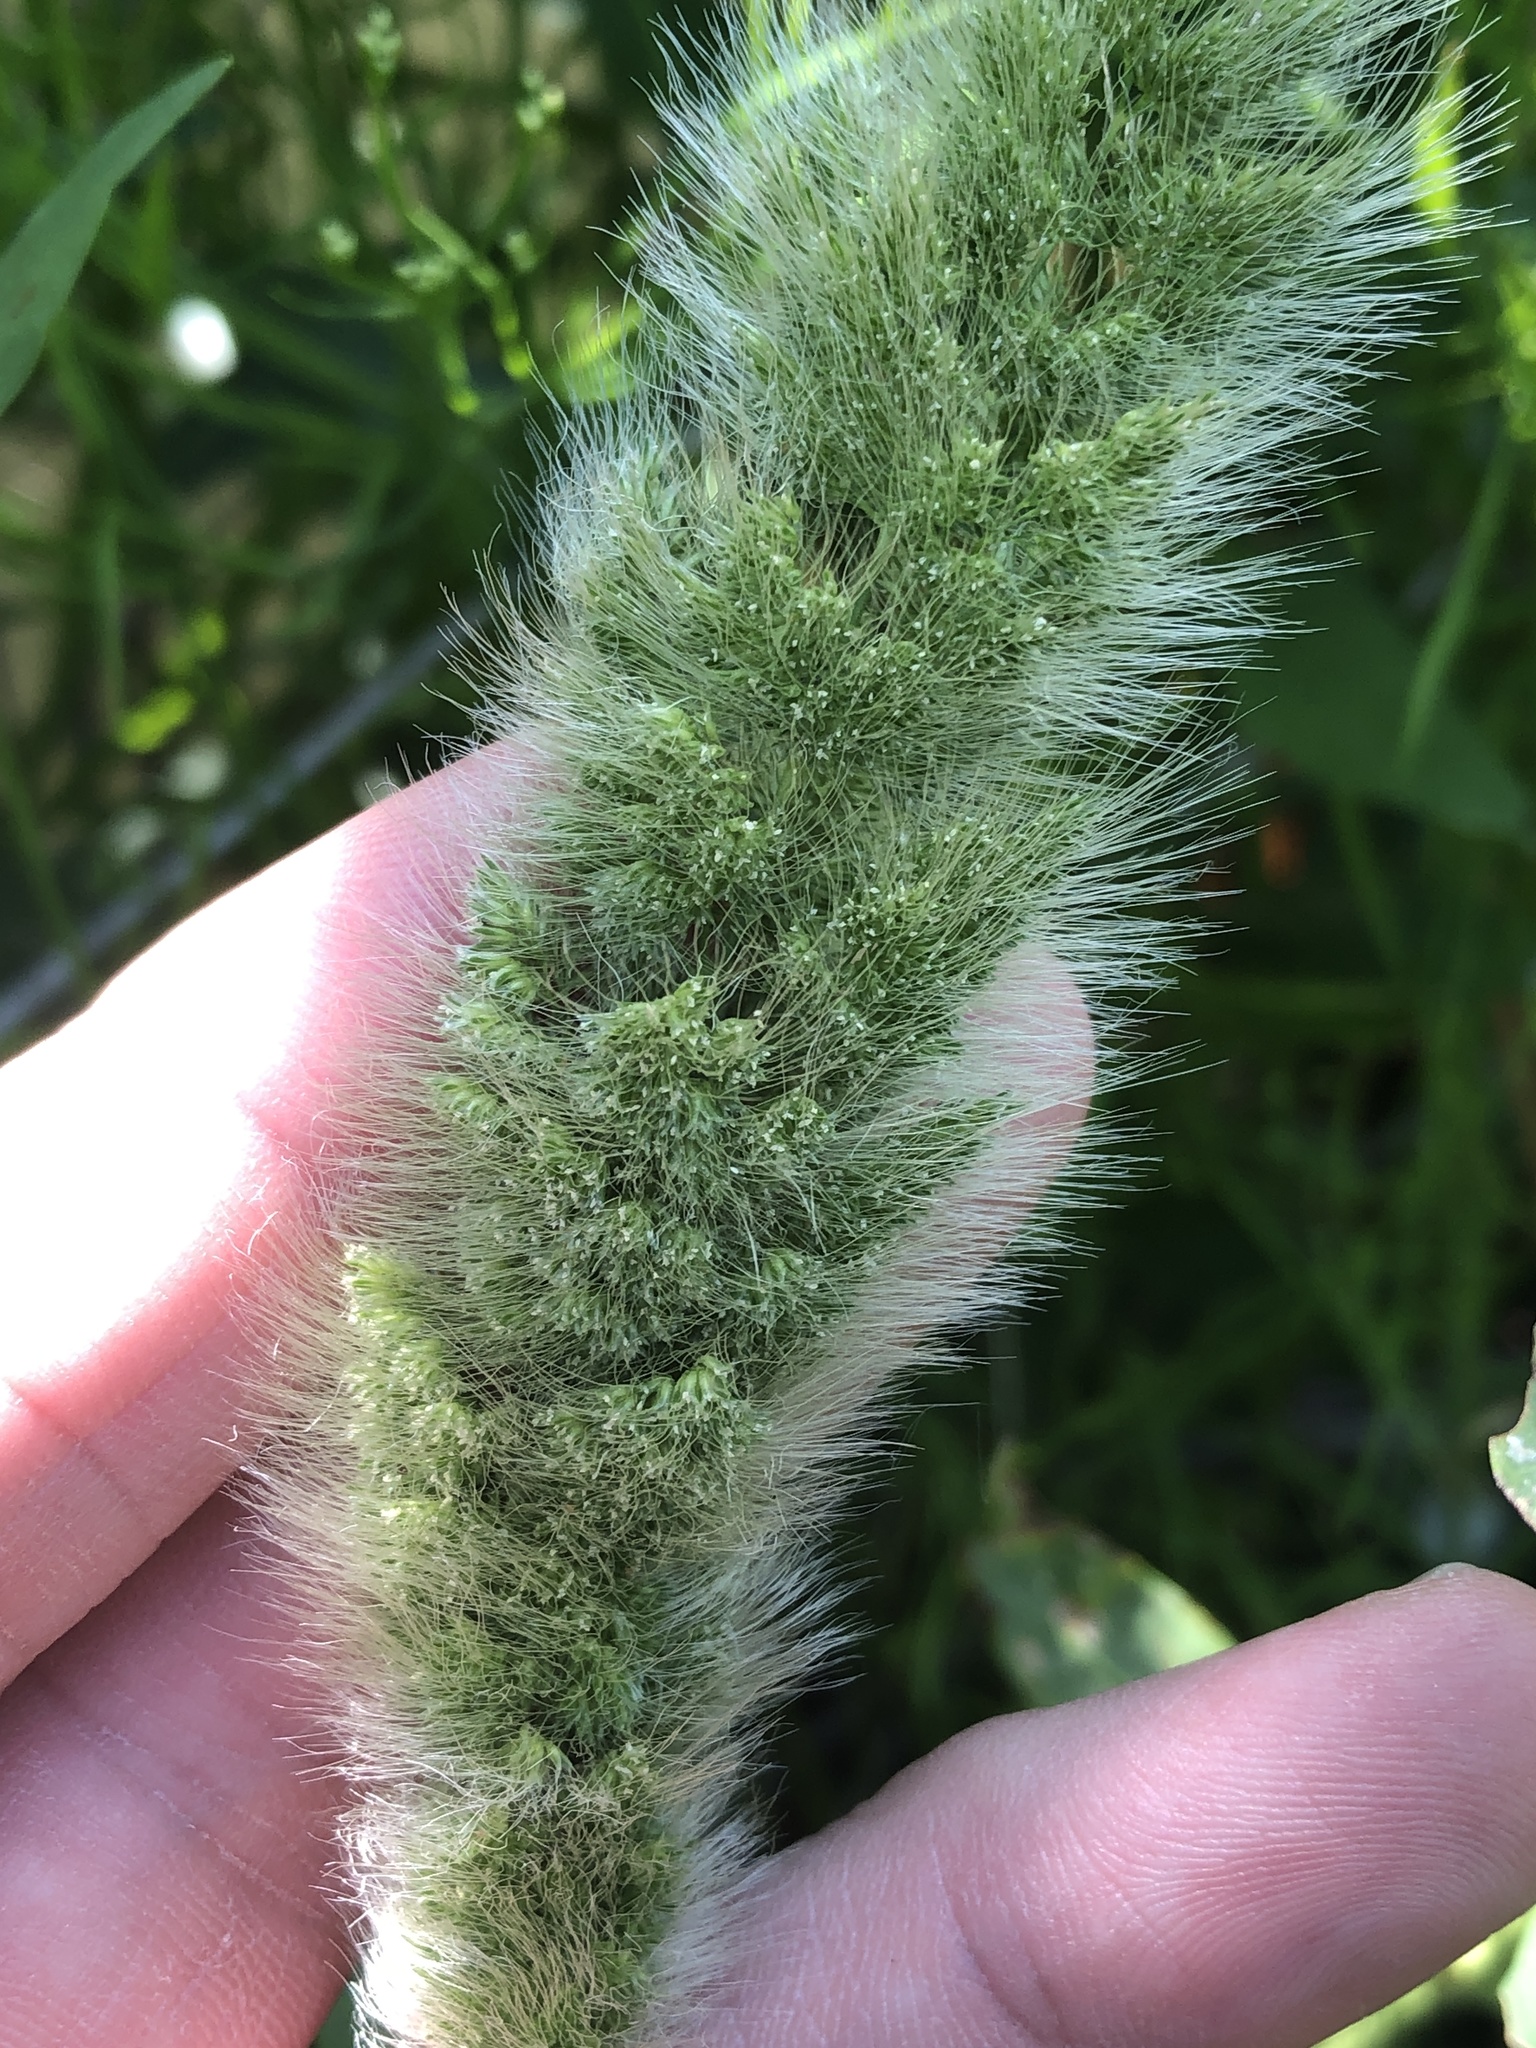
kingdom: Plantae
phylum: Tracheophyta
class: Liliopsida
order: Poales
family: Poaceae
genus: Polypogon
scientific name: Polypogon monspeliensis
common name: Annual rabbitsfoot grass
